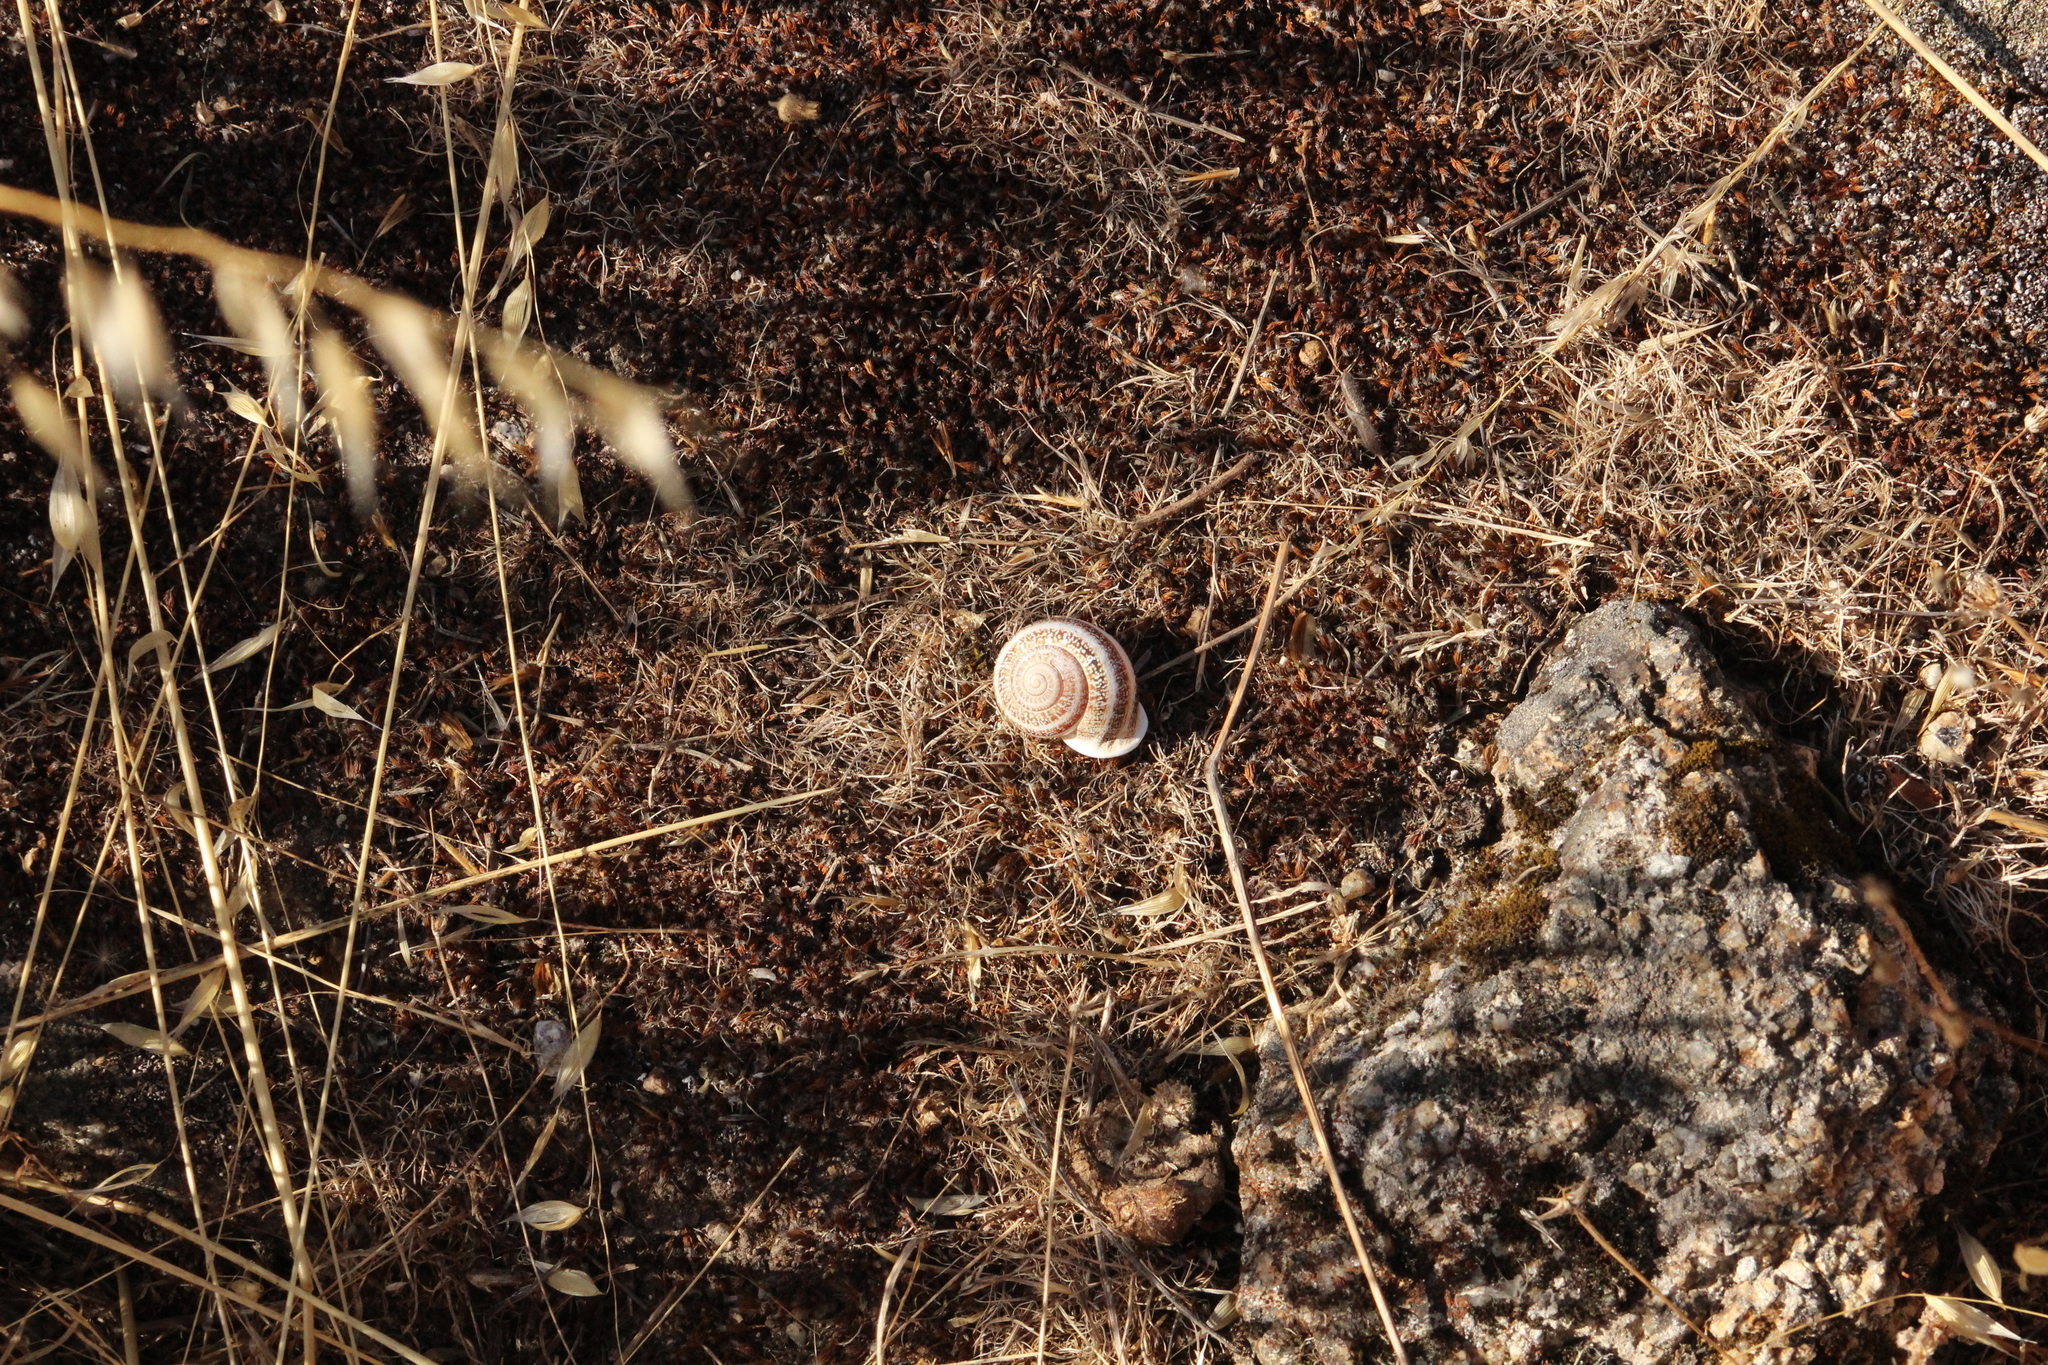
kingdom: Animalia
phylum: Mollusca
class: Gastropoda
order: Stylommatophora
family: Helicidae
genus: Otala
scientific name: Otala lactea
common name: Milk snail
